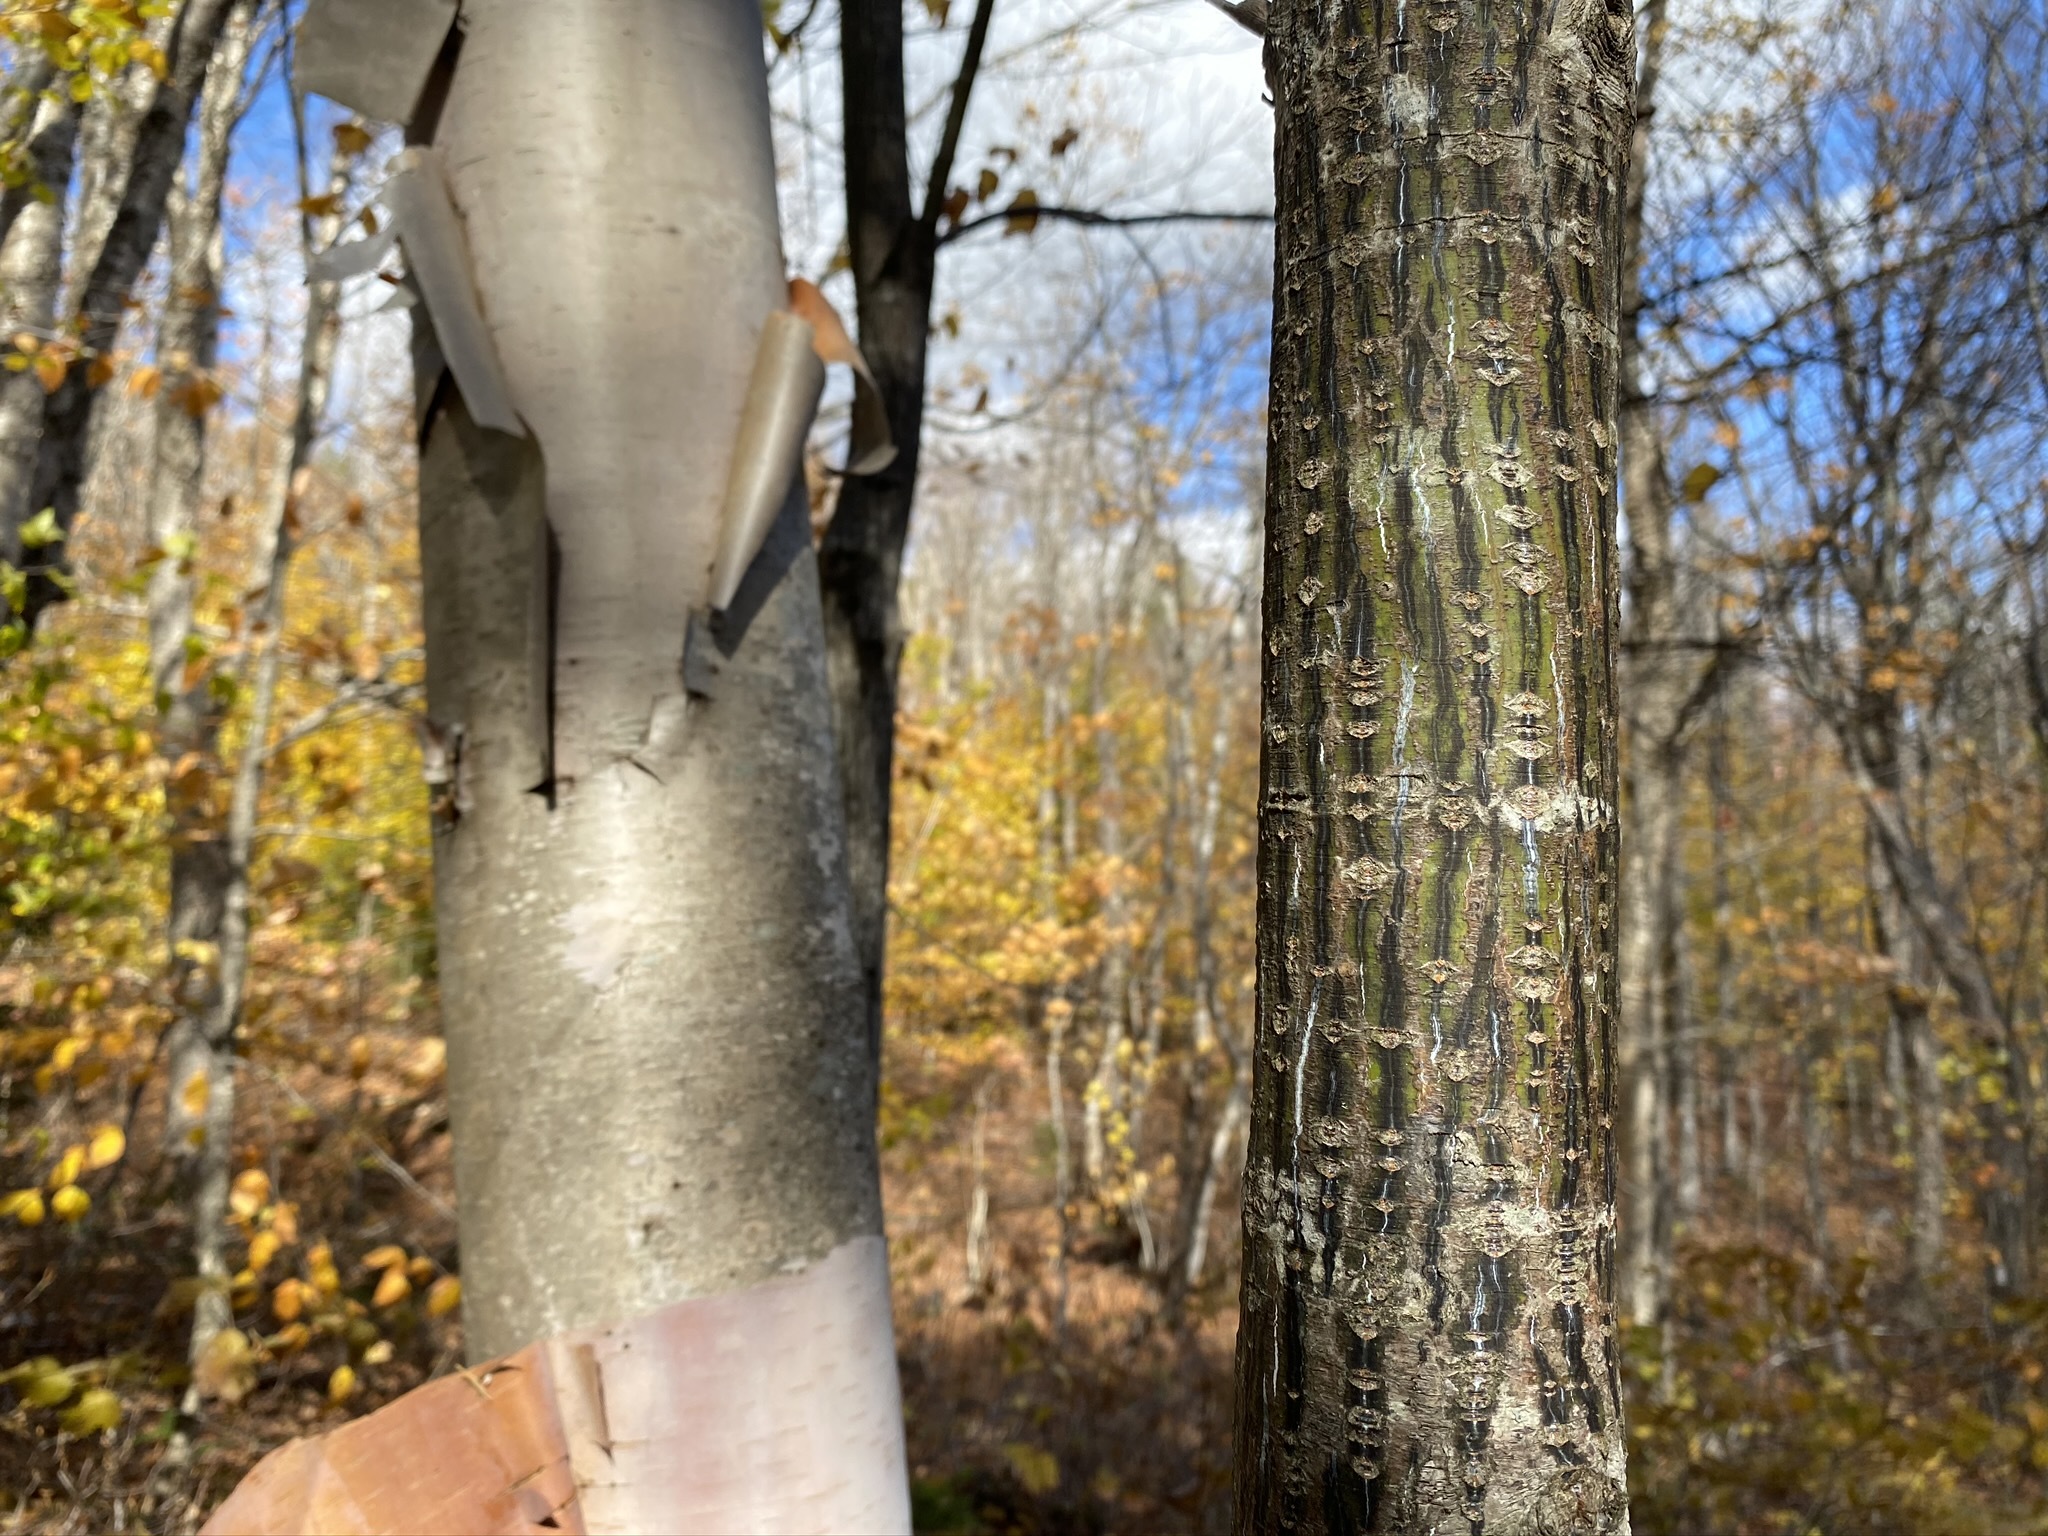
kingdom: Plantae
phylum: Tracheophyta
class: Magnoliopsida
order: Sapindales
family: Sapindaceae
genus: Acer
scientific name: Acer pensylvanicum
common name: Moosewood
